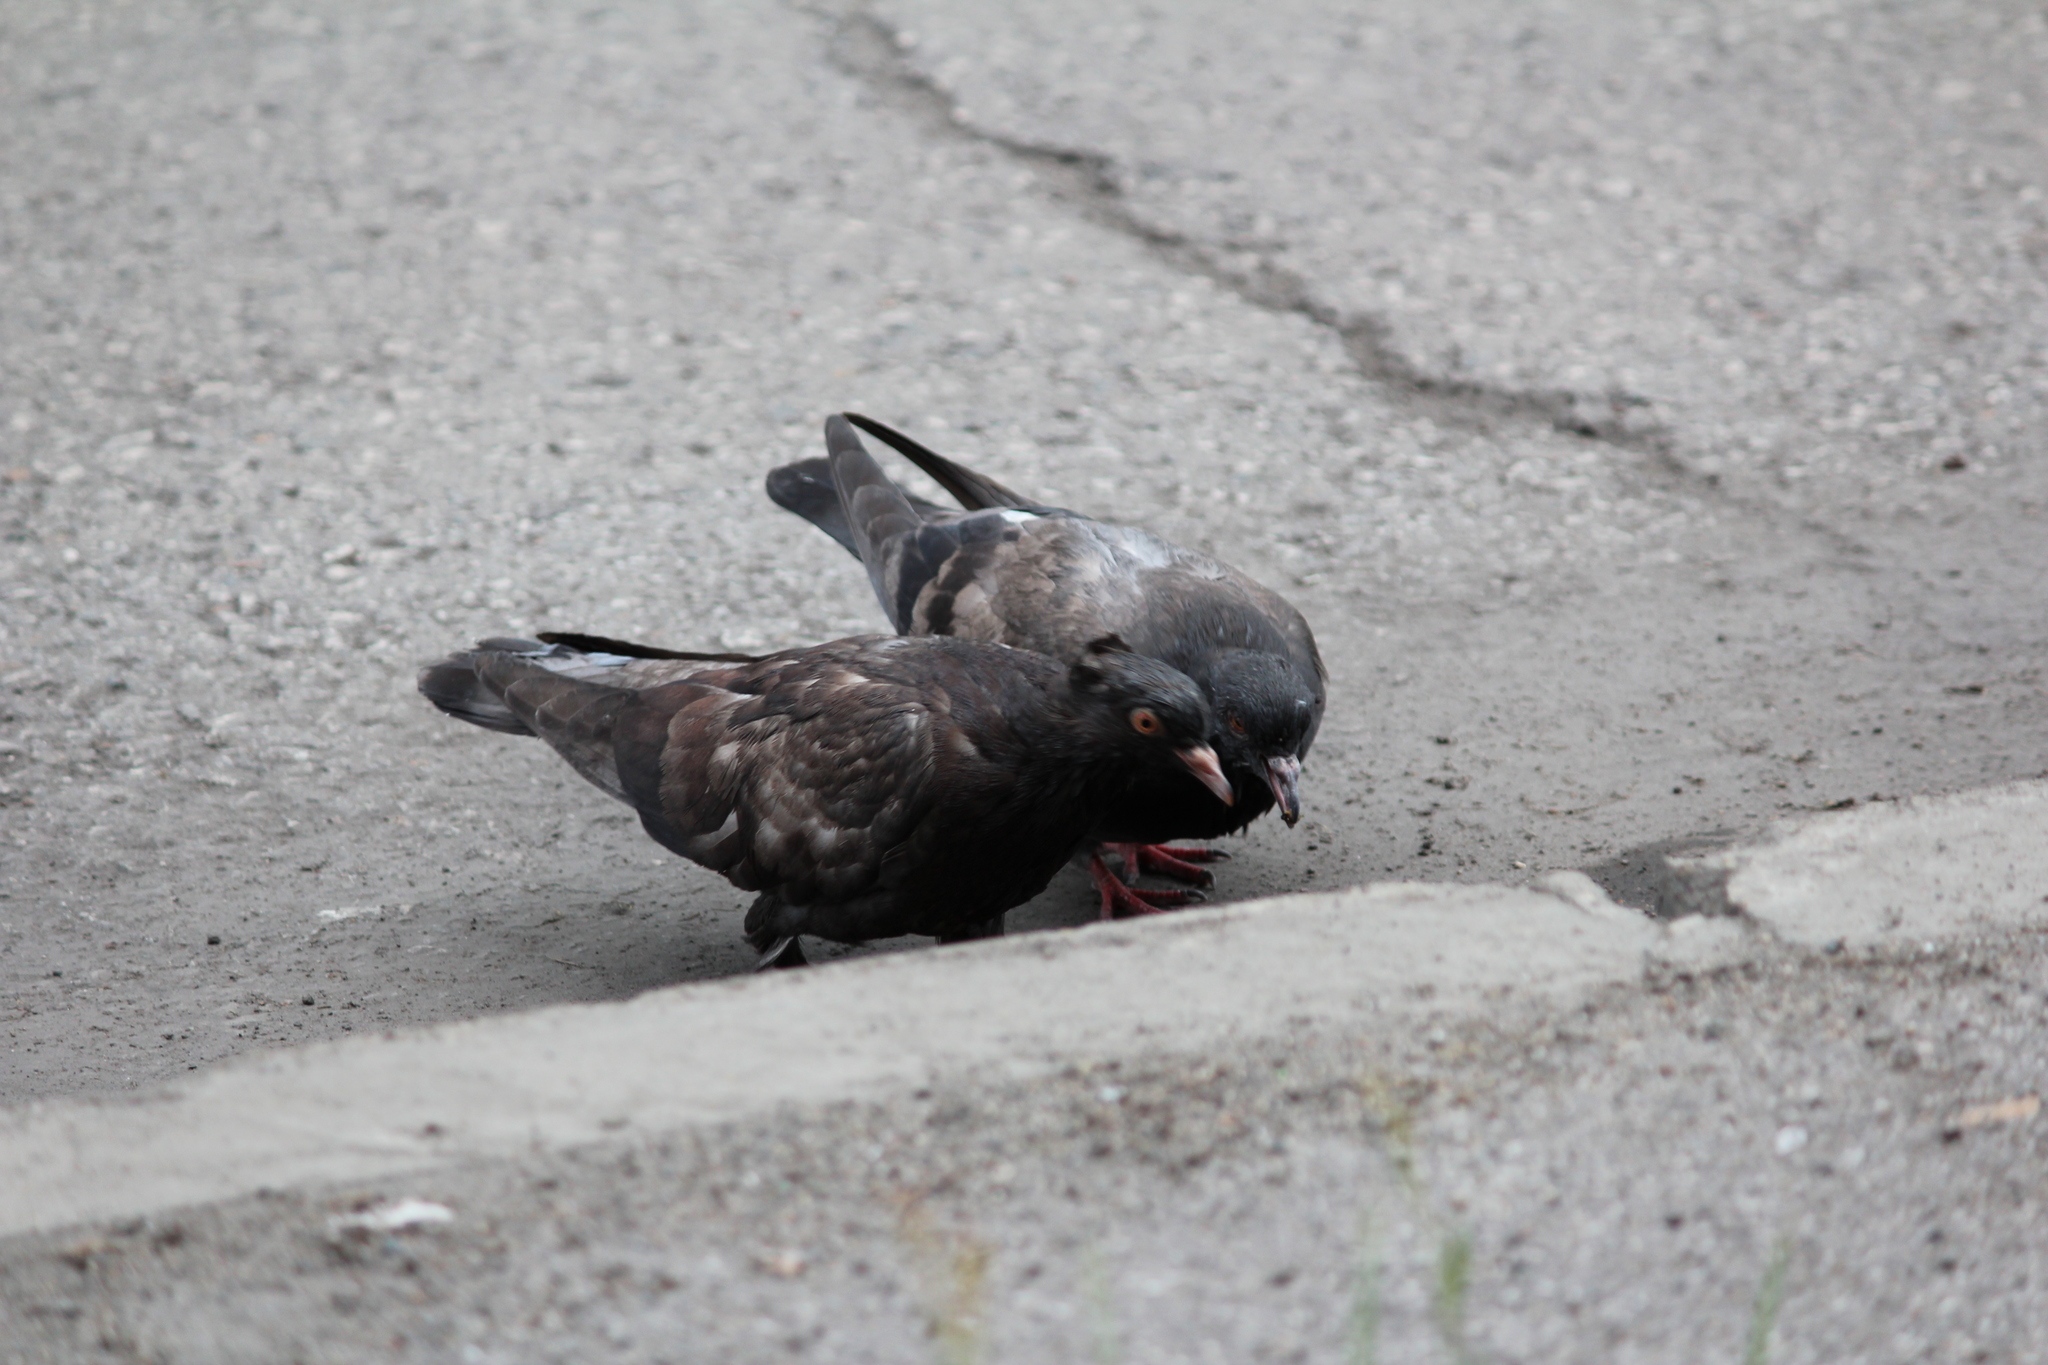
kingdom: Animalia
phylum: Chordata
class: Aves
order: Columbiformes
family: Columbidae
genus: Columba
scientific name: Columba livia
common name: Rock pigeon
